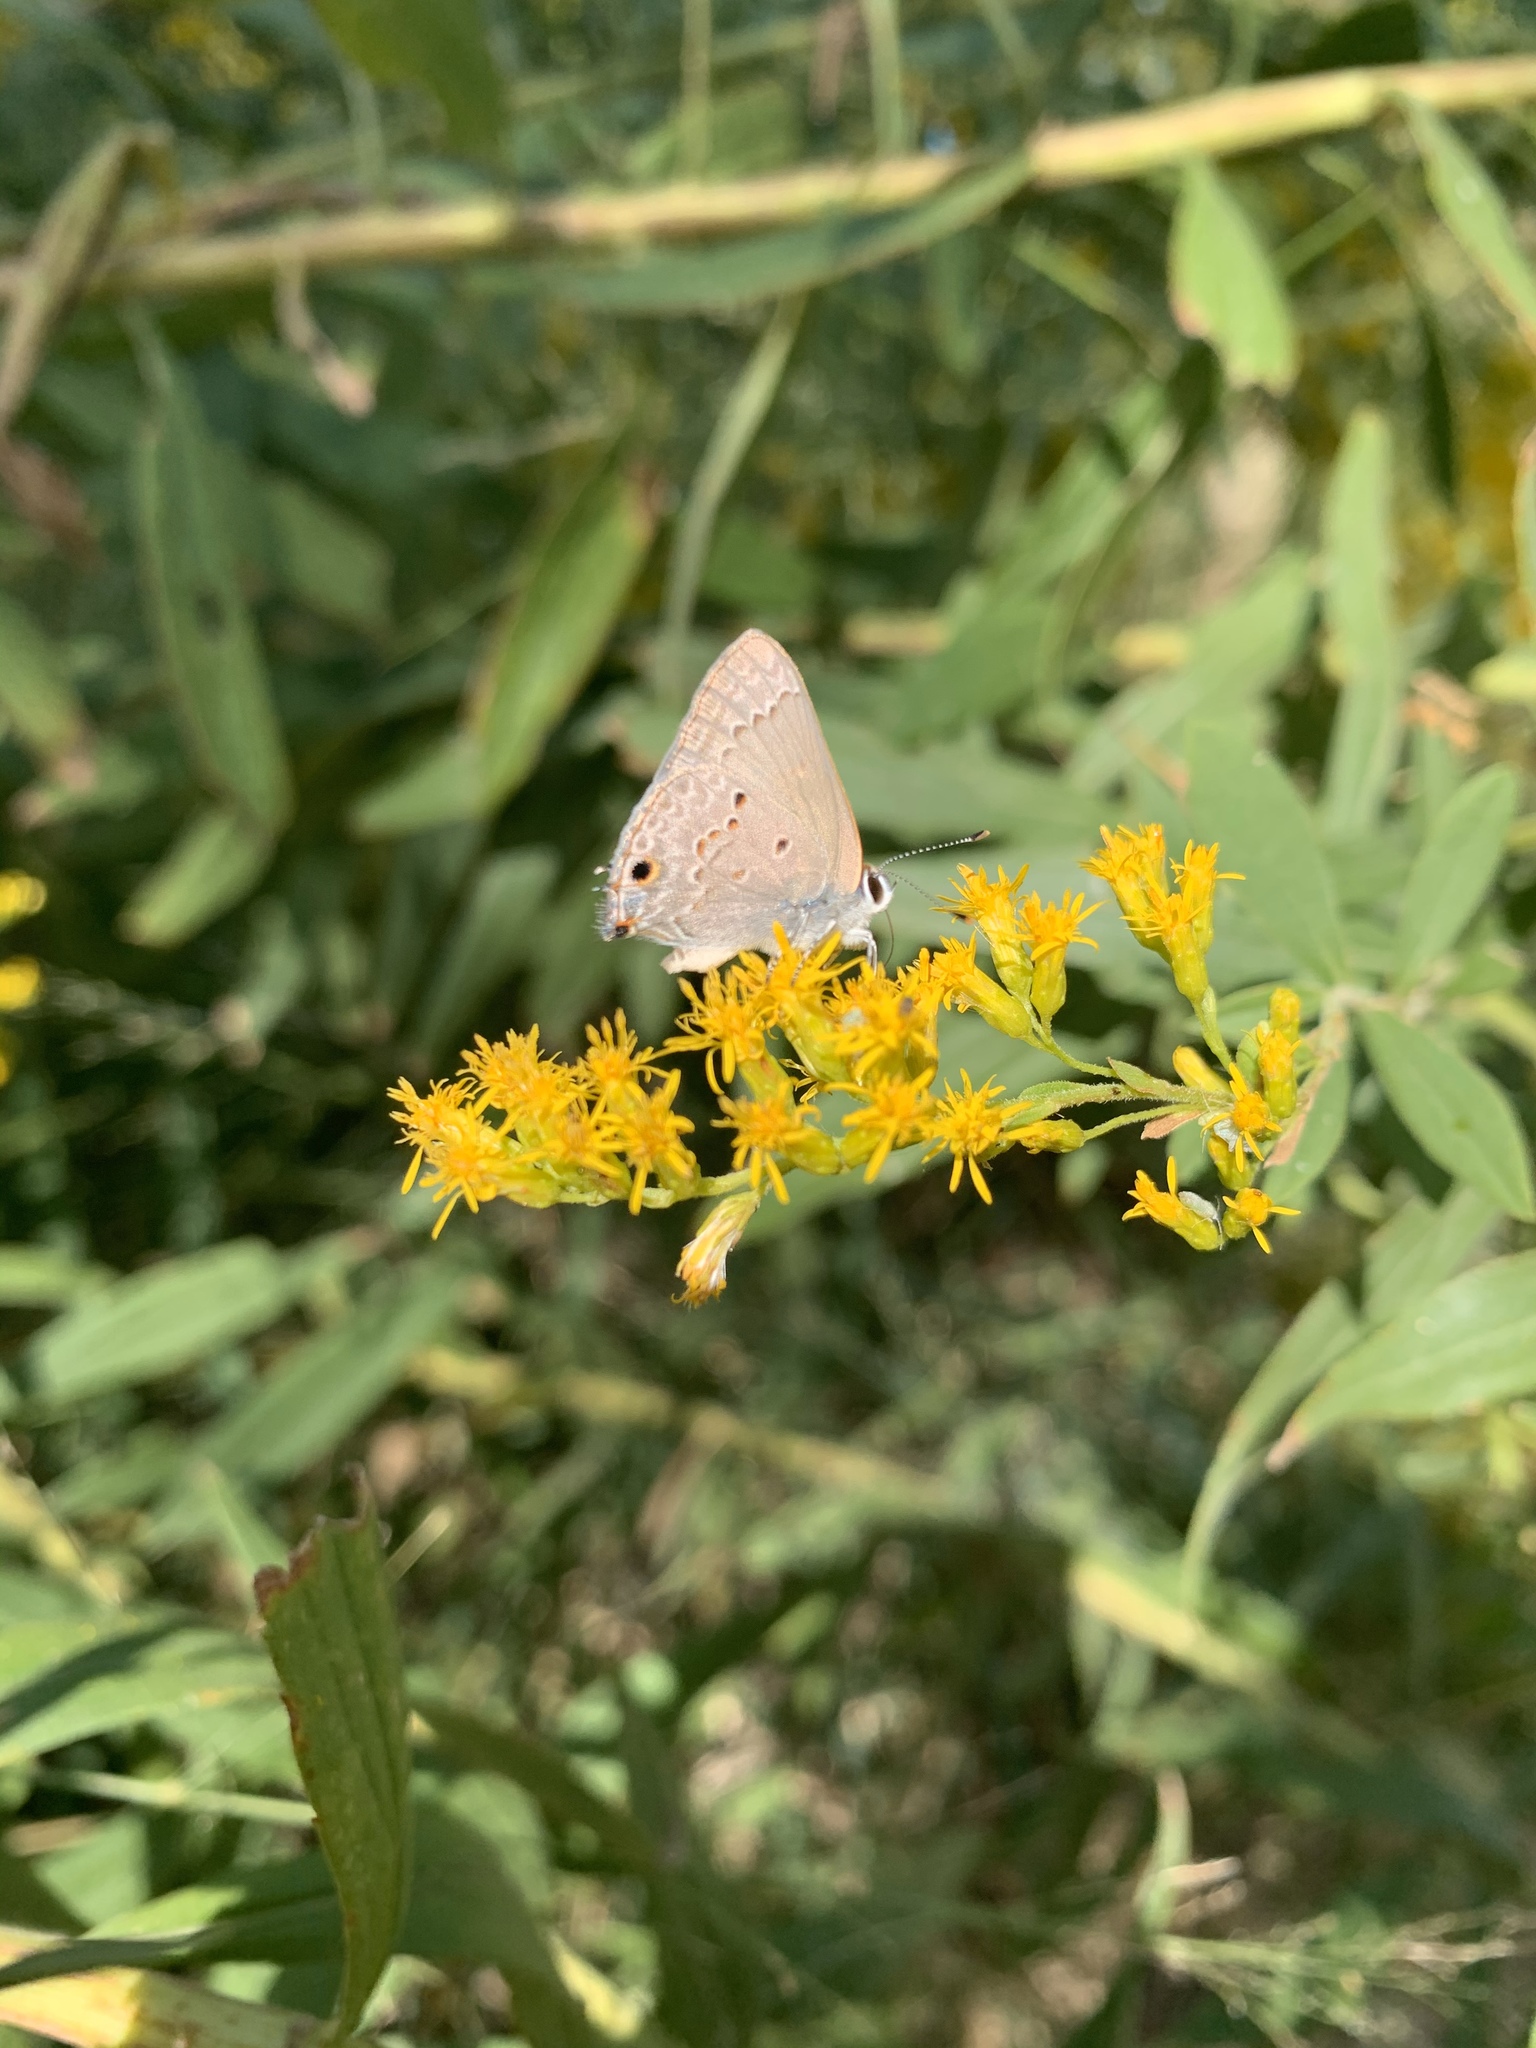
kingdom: Animalia
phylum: Arthropoda
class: Insecta
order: Lepidoptera
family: Lycaenidae
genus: Callicista
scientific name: Callicista columella
